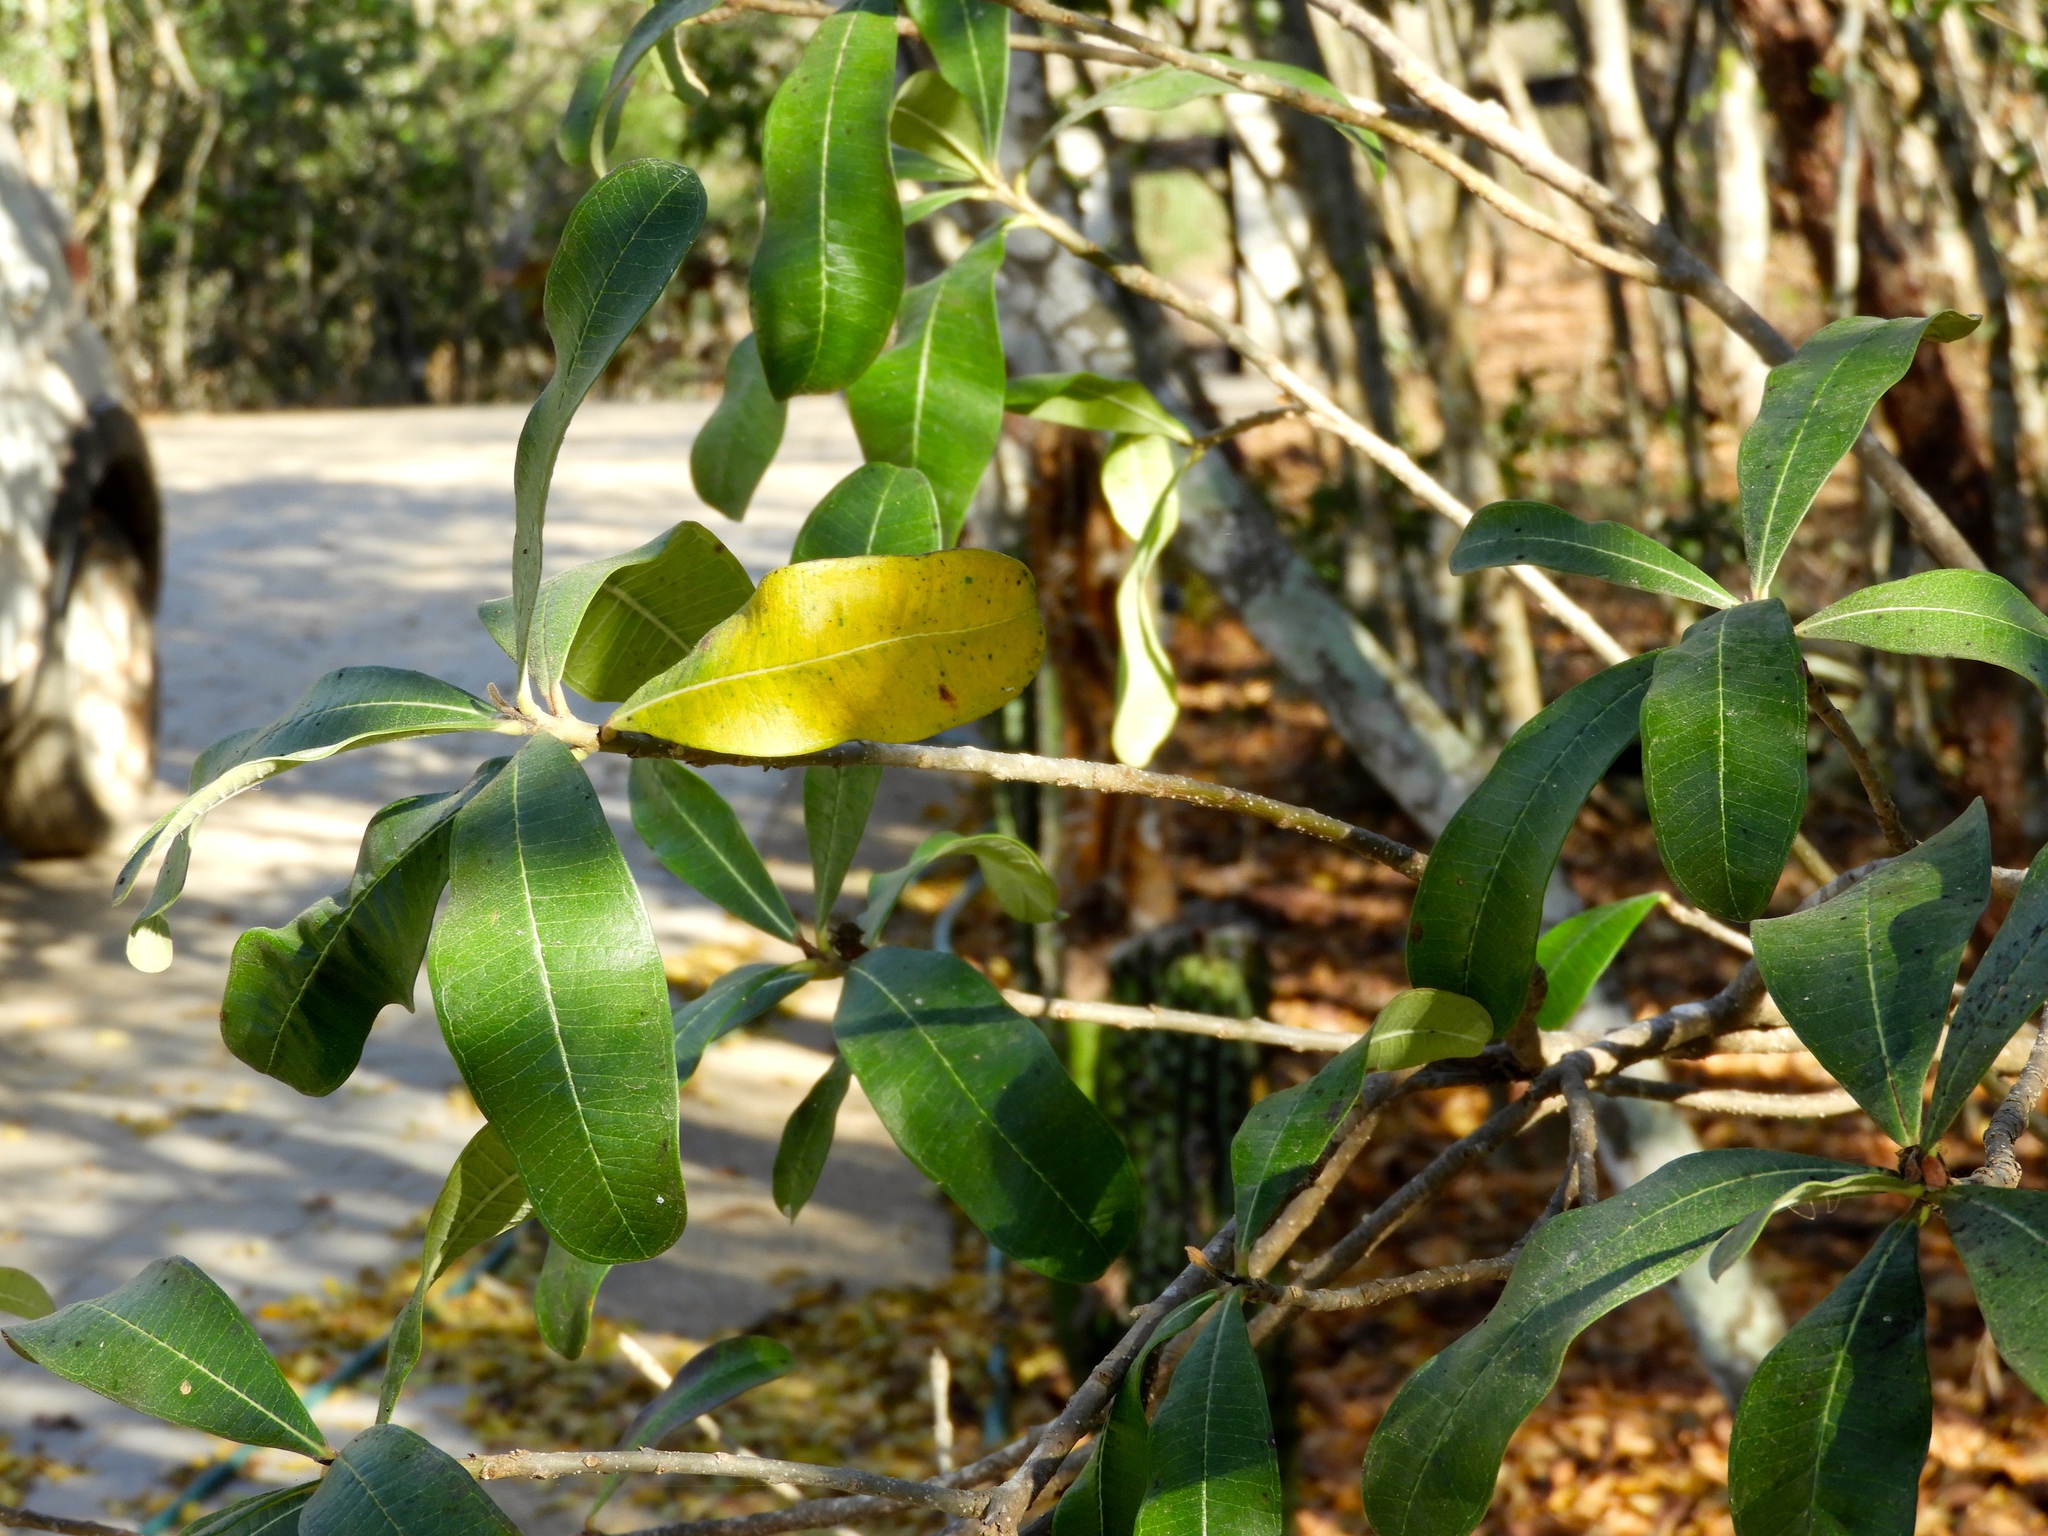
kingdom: Plantae
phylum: Tracheophyta
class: Magnoliopsida
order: Gentianales
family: Apocynaceae
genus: Cascabela
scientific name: Cascabela ovata
